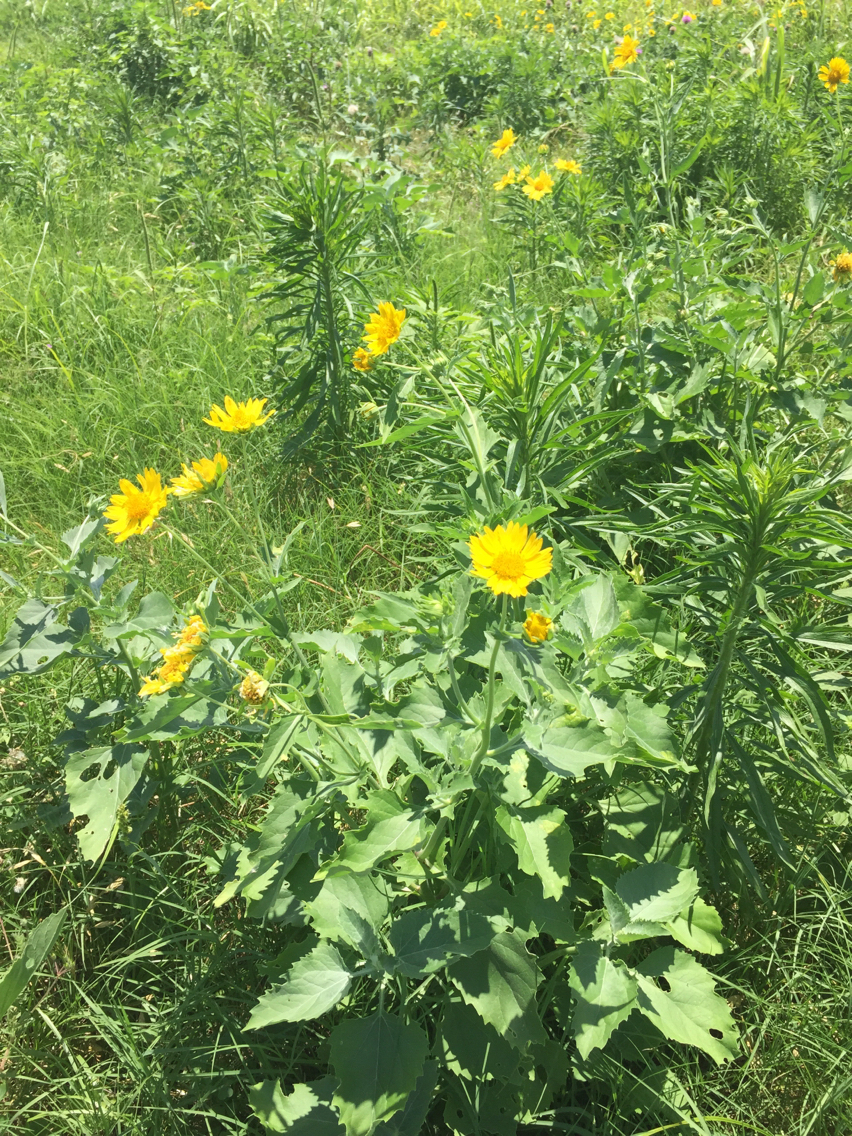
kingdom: Plantae
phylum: Tracheophyta
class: Magnoliopsida
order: Asterales
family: Asteraceae
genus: Verbesina
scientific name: Verbesina encelioides
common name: Golden crownbeard
